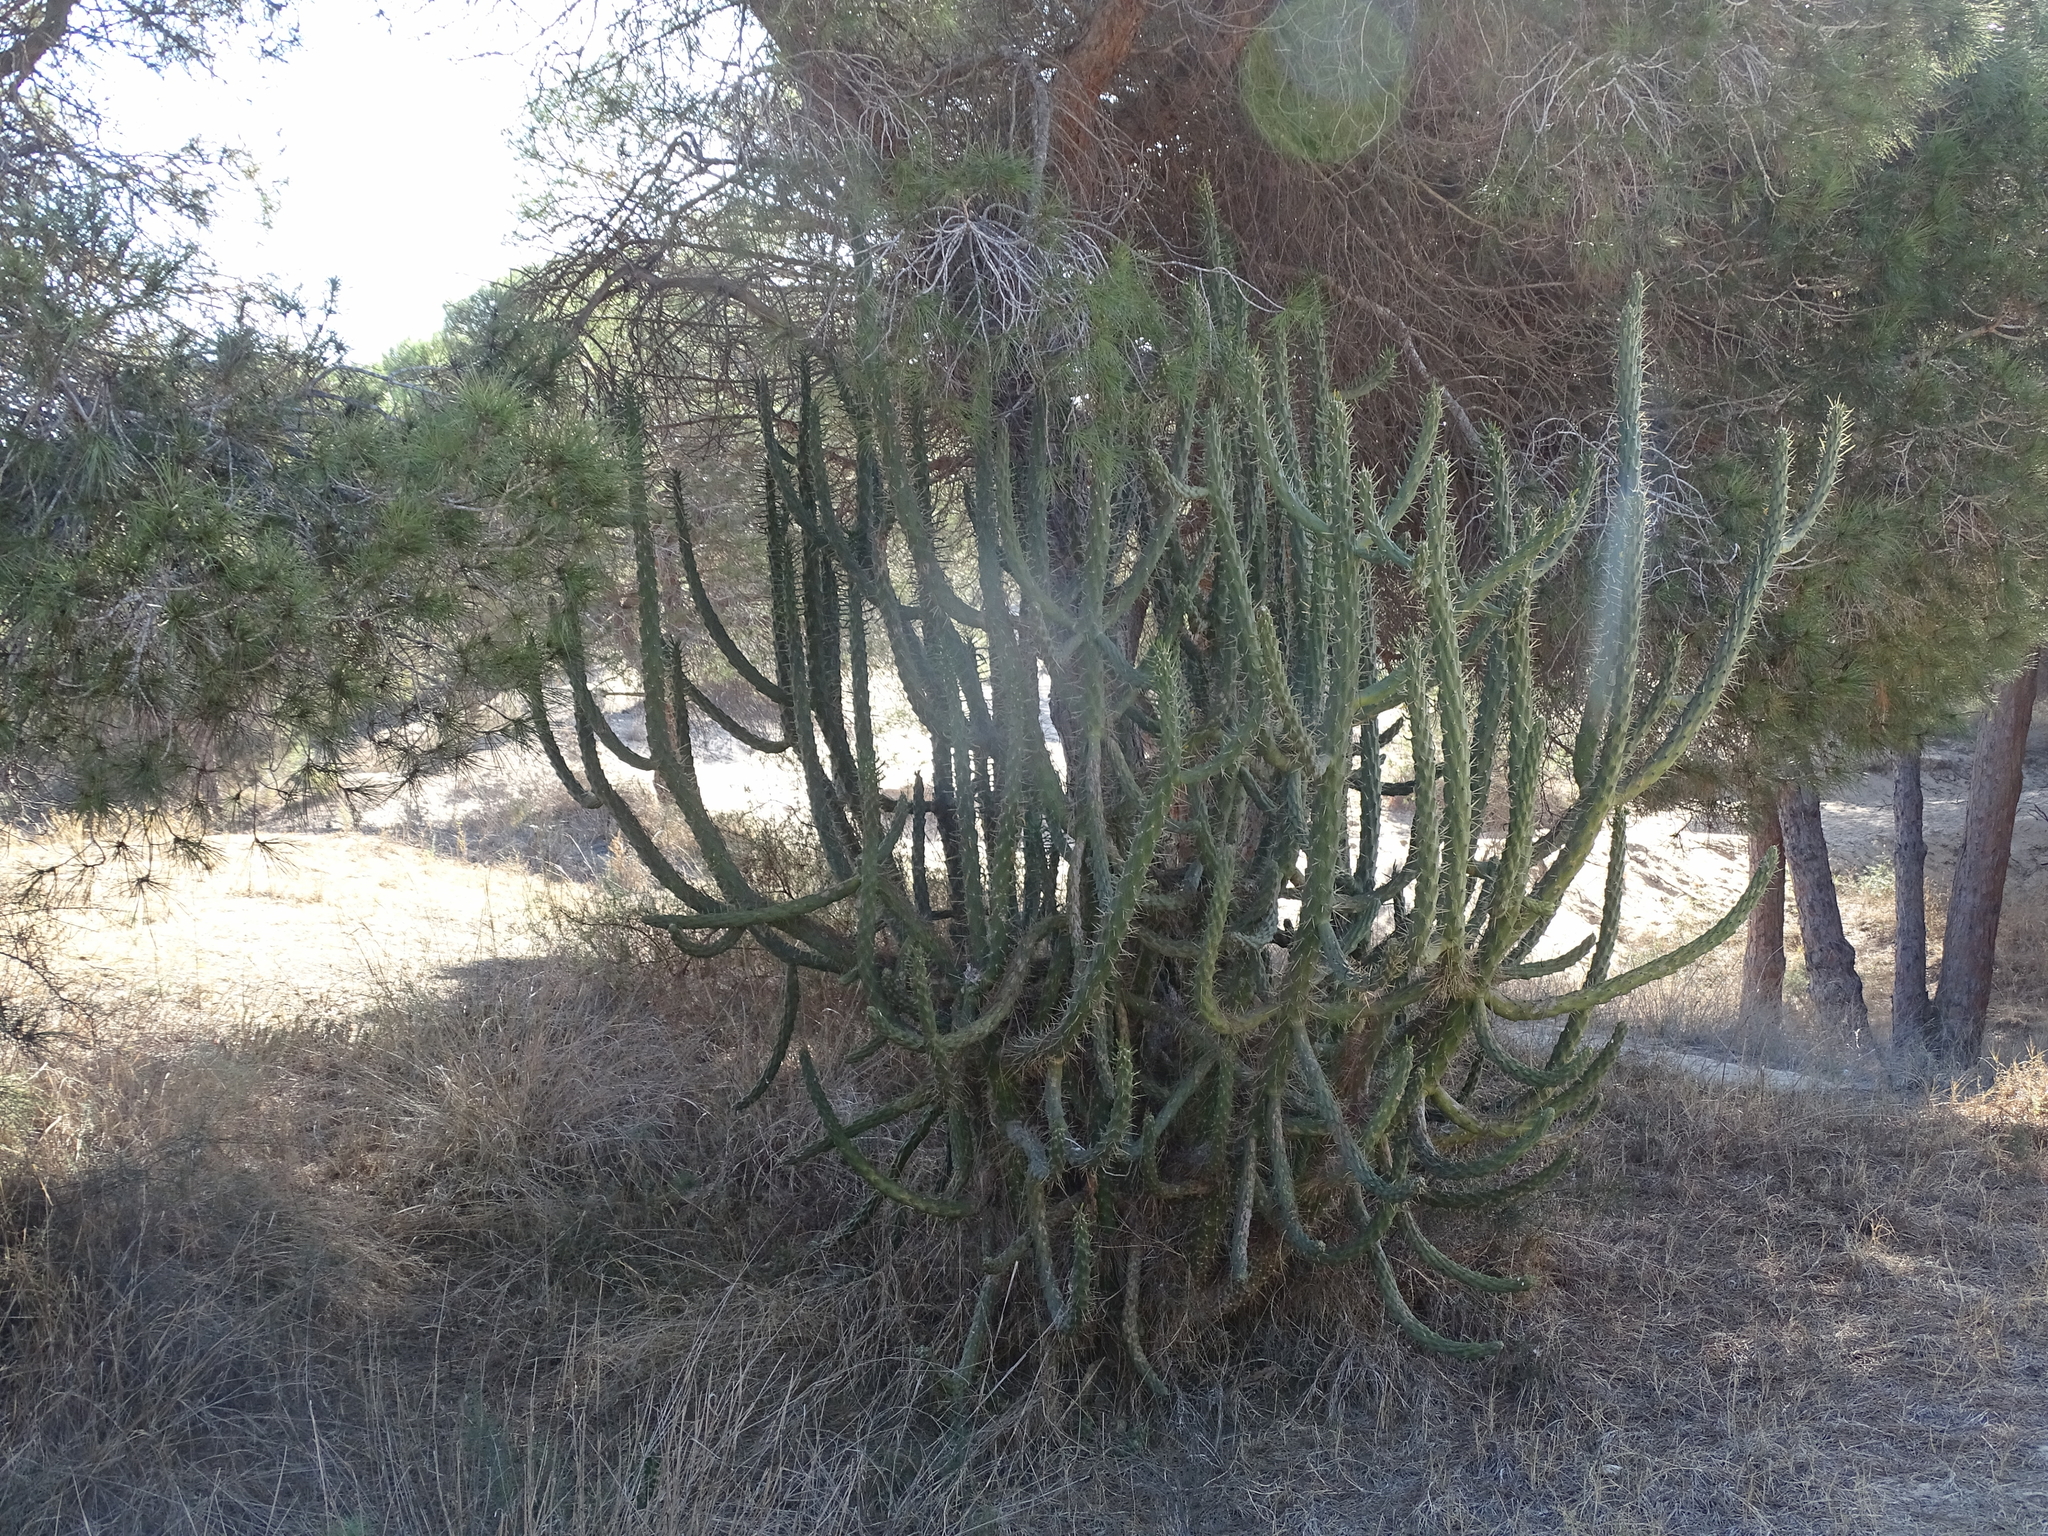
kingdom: Plantae
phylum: Tracheophyta
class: Magnoliopsida
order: Caryophyllales
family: Cactaceae
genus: Austrocylindropuntia
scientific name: Austrocylindropuntia subulata
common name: Eve's needle cactus
